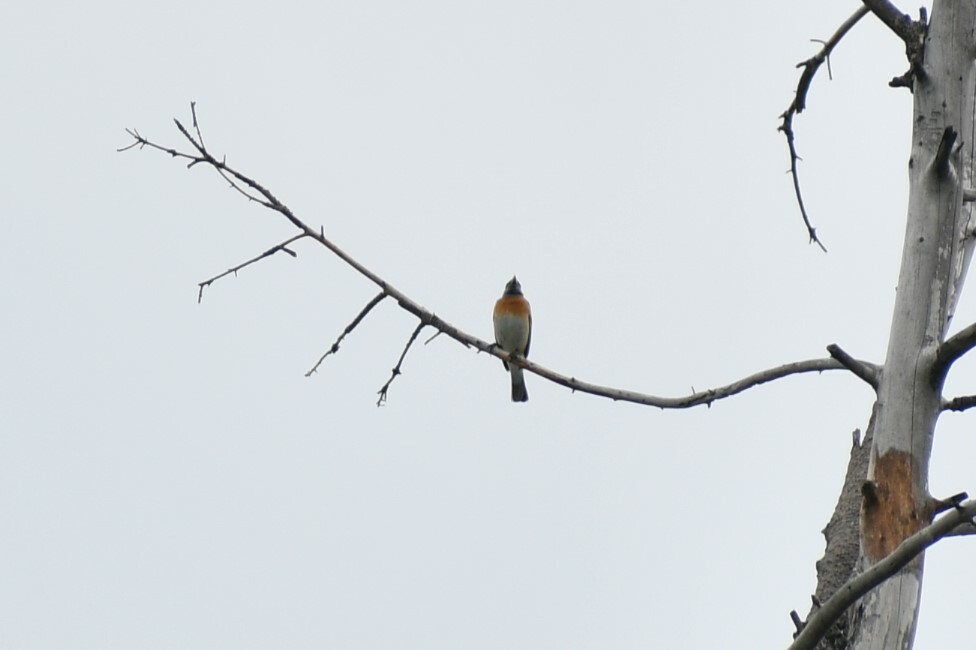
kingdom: Animalia
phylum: Chordata
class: Aves
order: Passeriformes
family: Cardinalidae
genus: Passerina
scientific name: Passerina amoena
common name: Lazuli bunting
